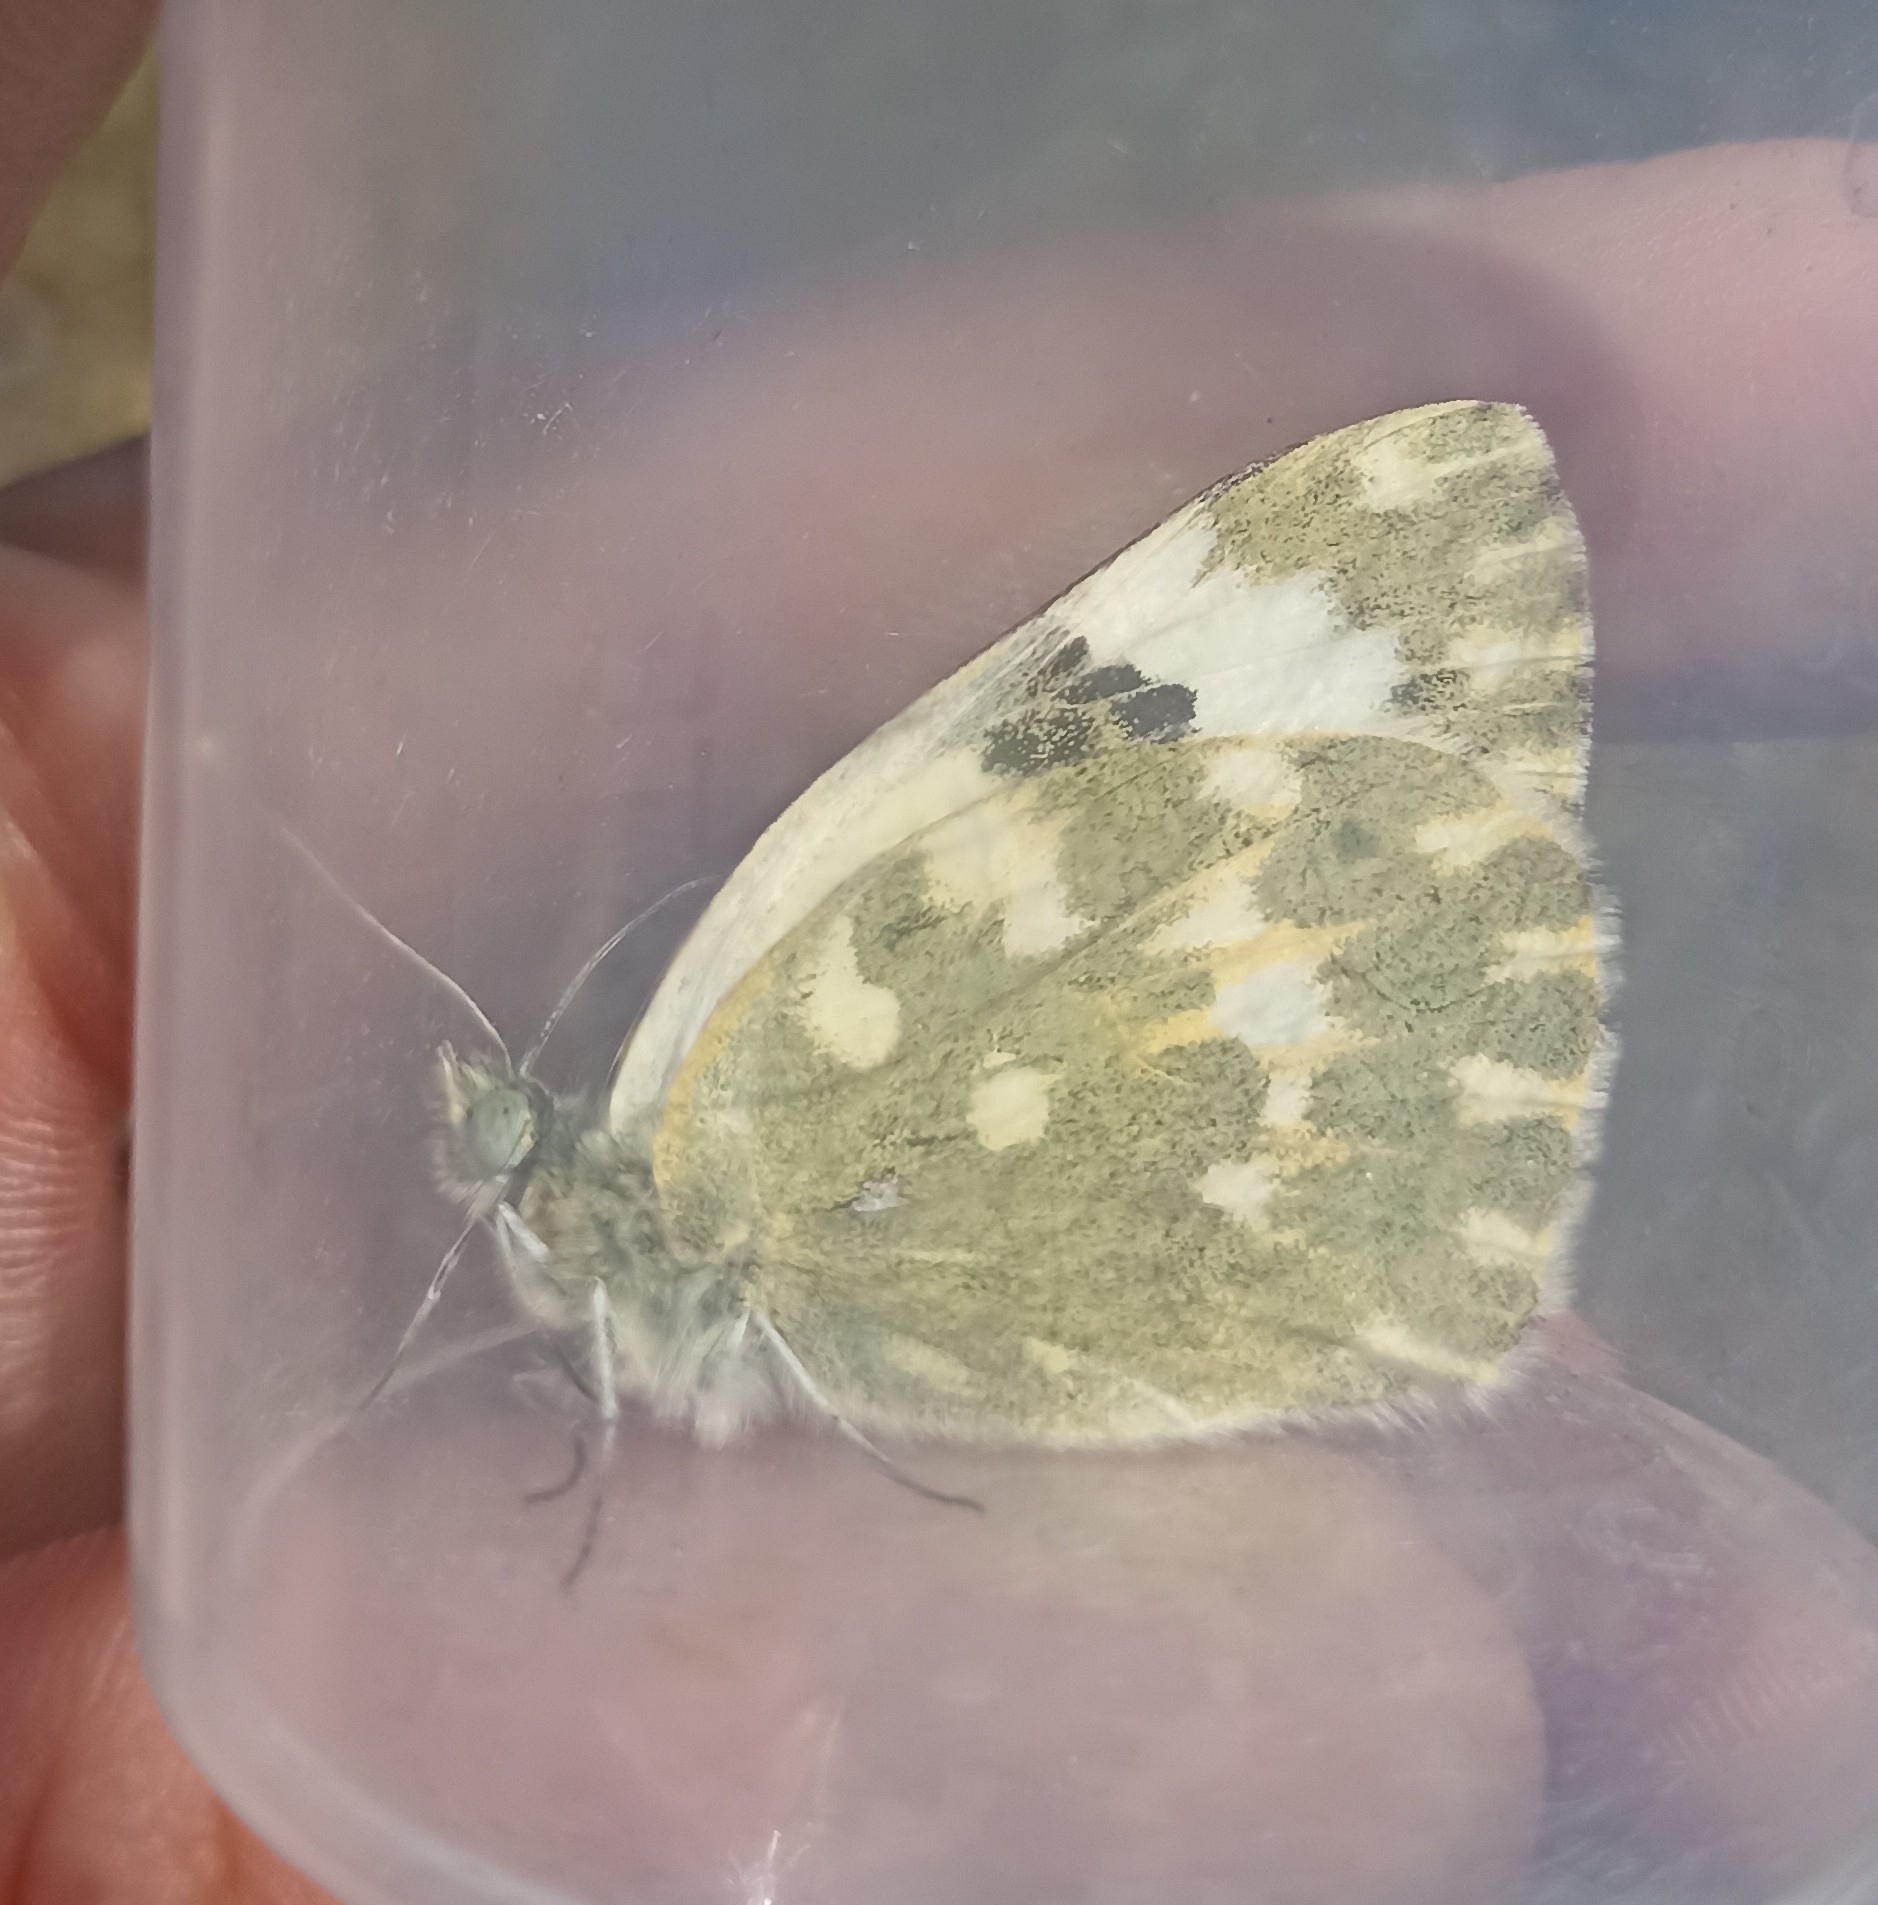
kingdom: Animalia
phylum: Arthropoda
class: Insecta
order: Lepidoptera
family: Pieridae
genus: Pontia
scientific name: Pontia daplidice
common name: Bath white
